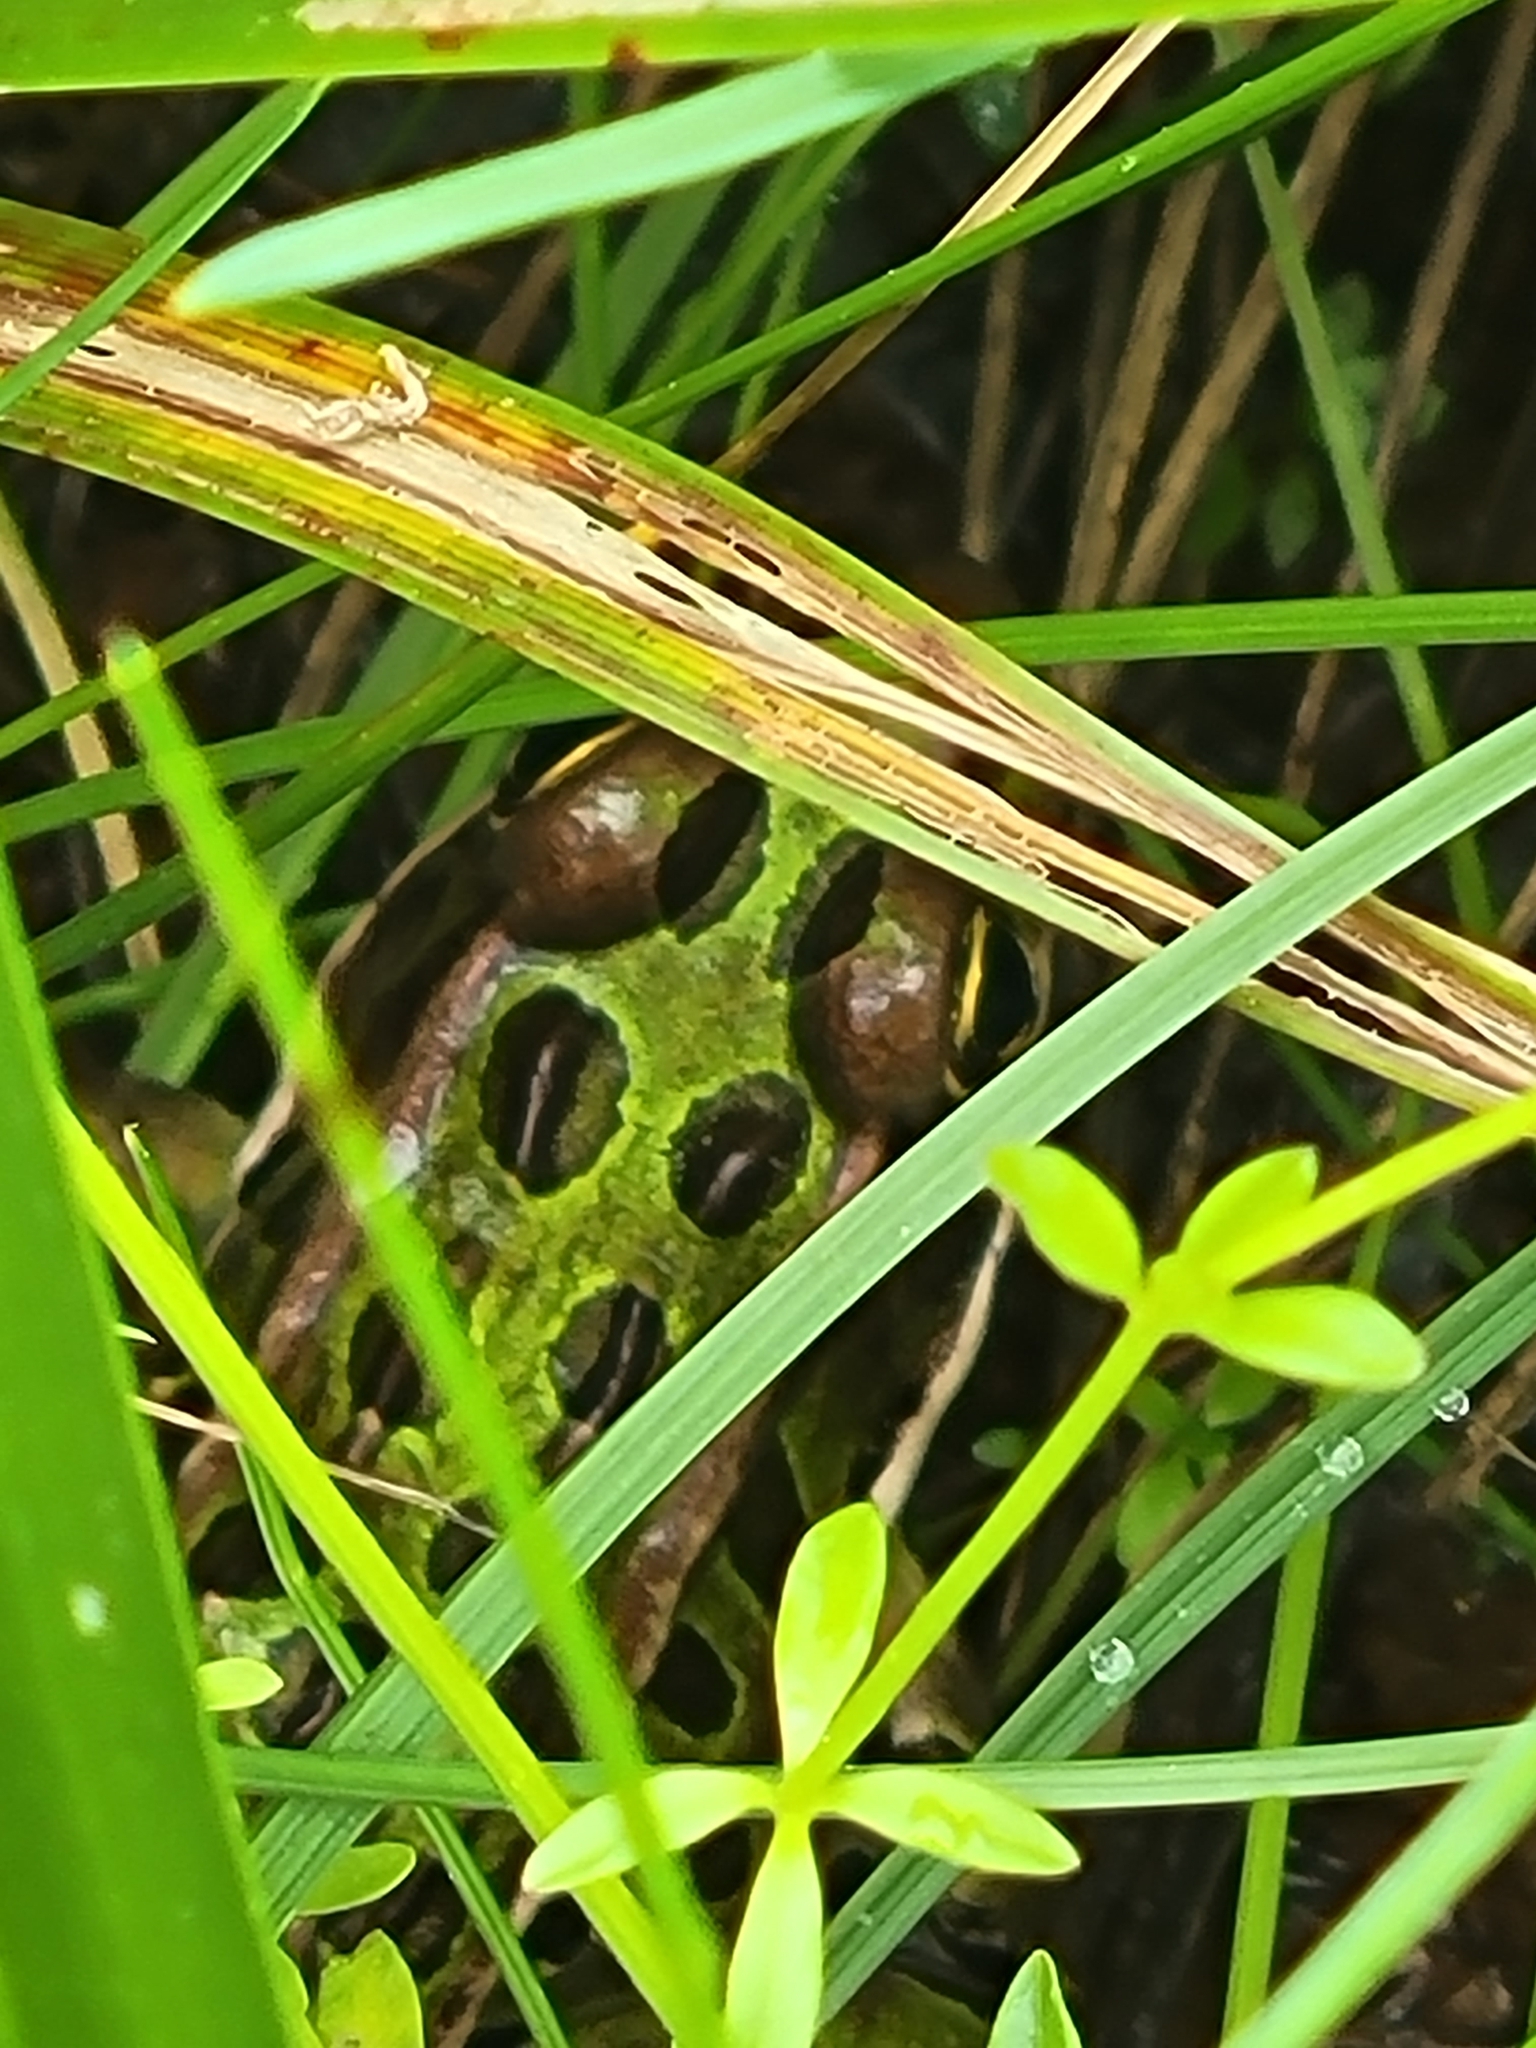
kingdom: Animalia
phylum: Chordata
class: Amphibia
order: Anura
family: Ranidae
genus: Lithobates
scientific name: Lithobates pipiens
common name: Northern leopard frog
